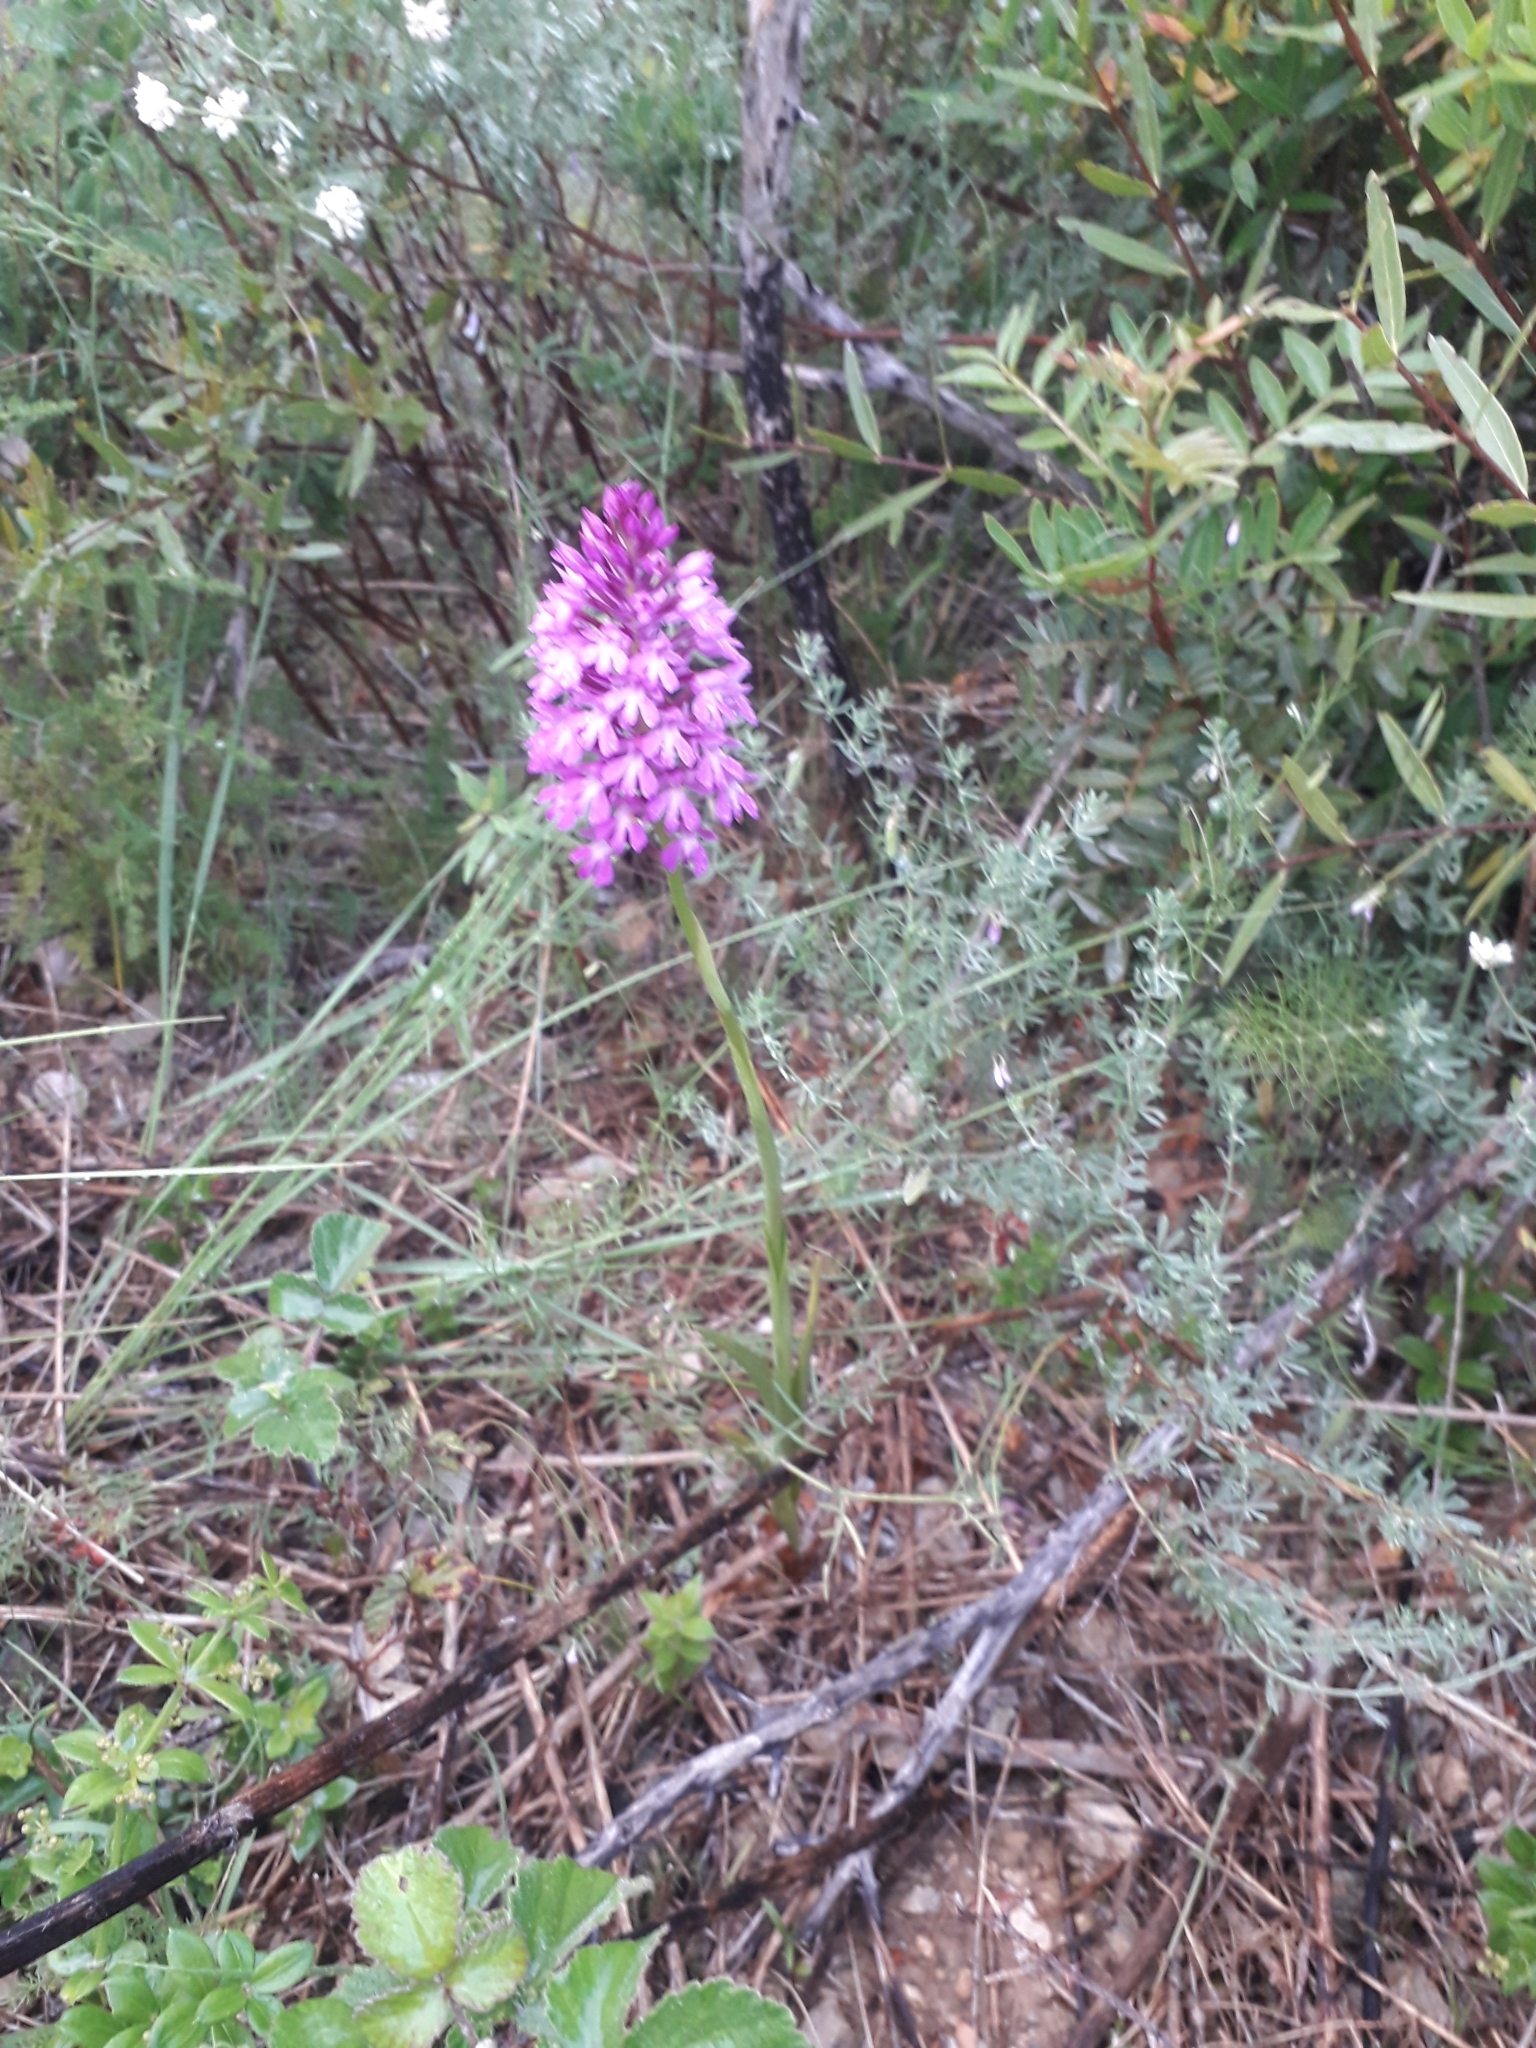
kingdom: Plantae
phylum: Tracheophyta
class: Liliopsida
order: Asparagales
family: Orchidaceae
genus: Anacamptis
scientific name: Anacamptis pyramidalis
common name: Pyramidal orchid
